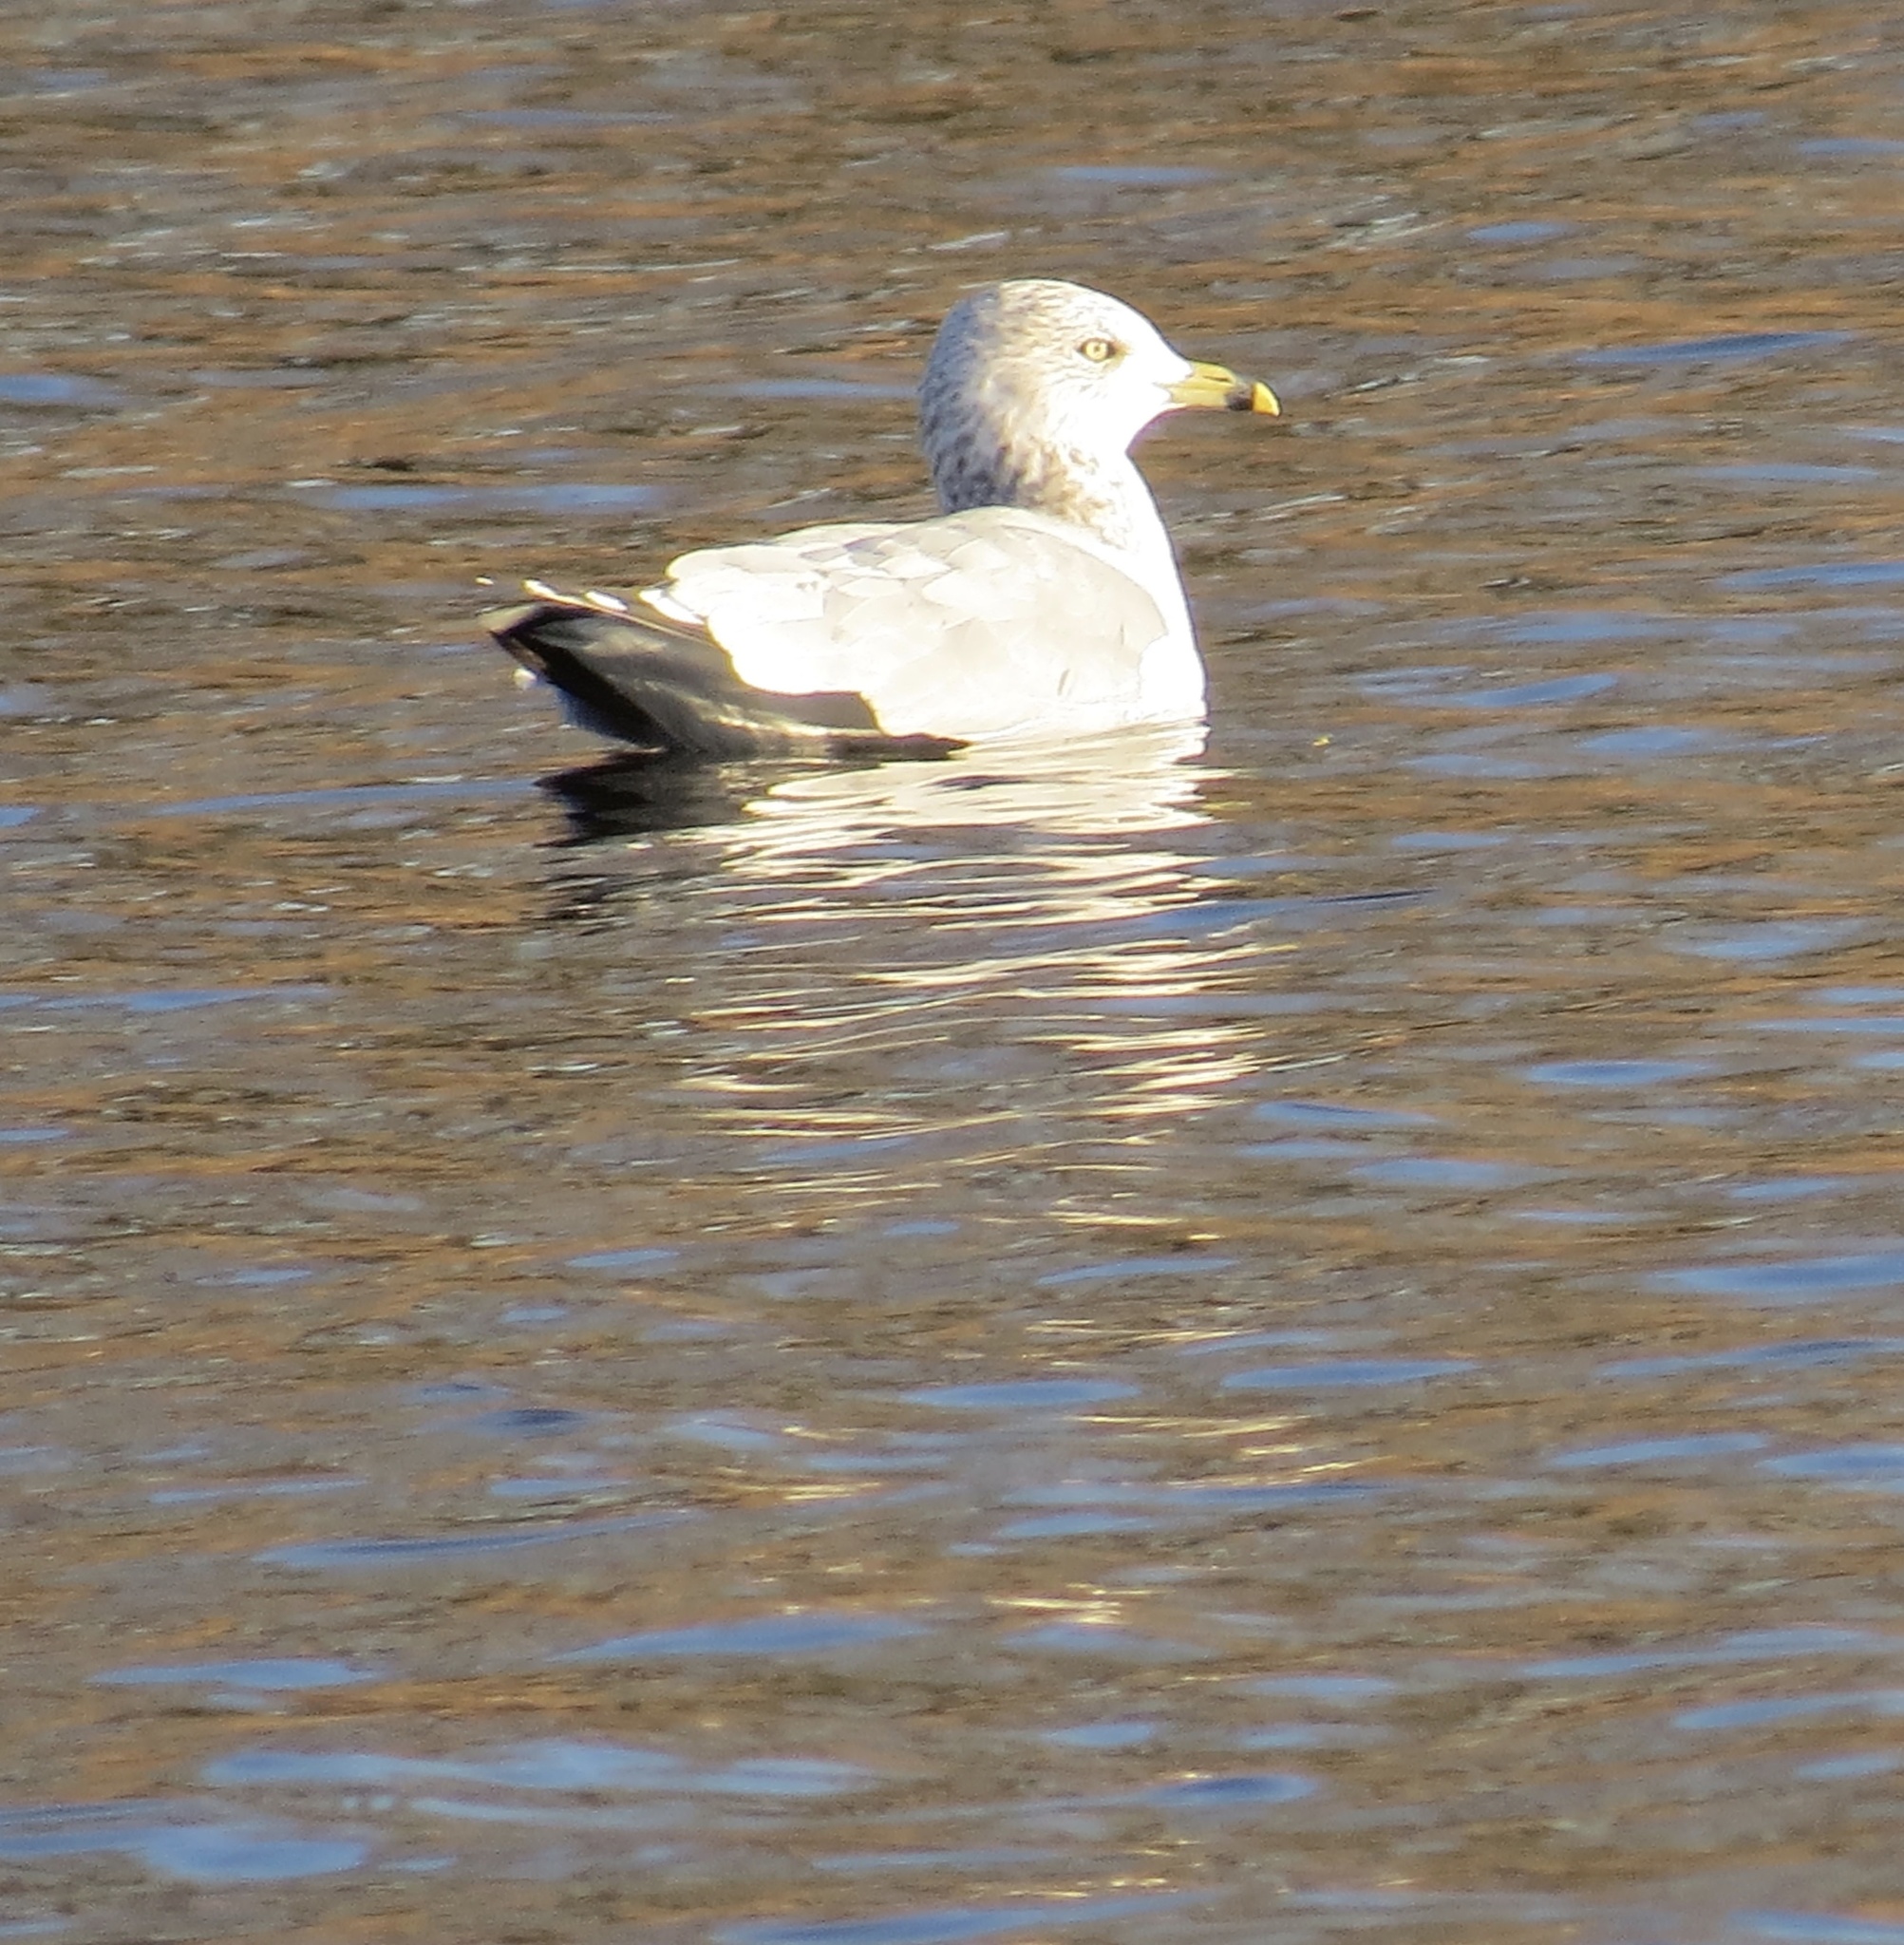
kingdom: Animalia
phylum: Chordata
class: Aves
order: Charadriiformes
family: Laridae
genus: Larus
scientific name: Larus delawarensis
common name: Ring-billed gull
